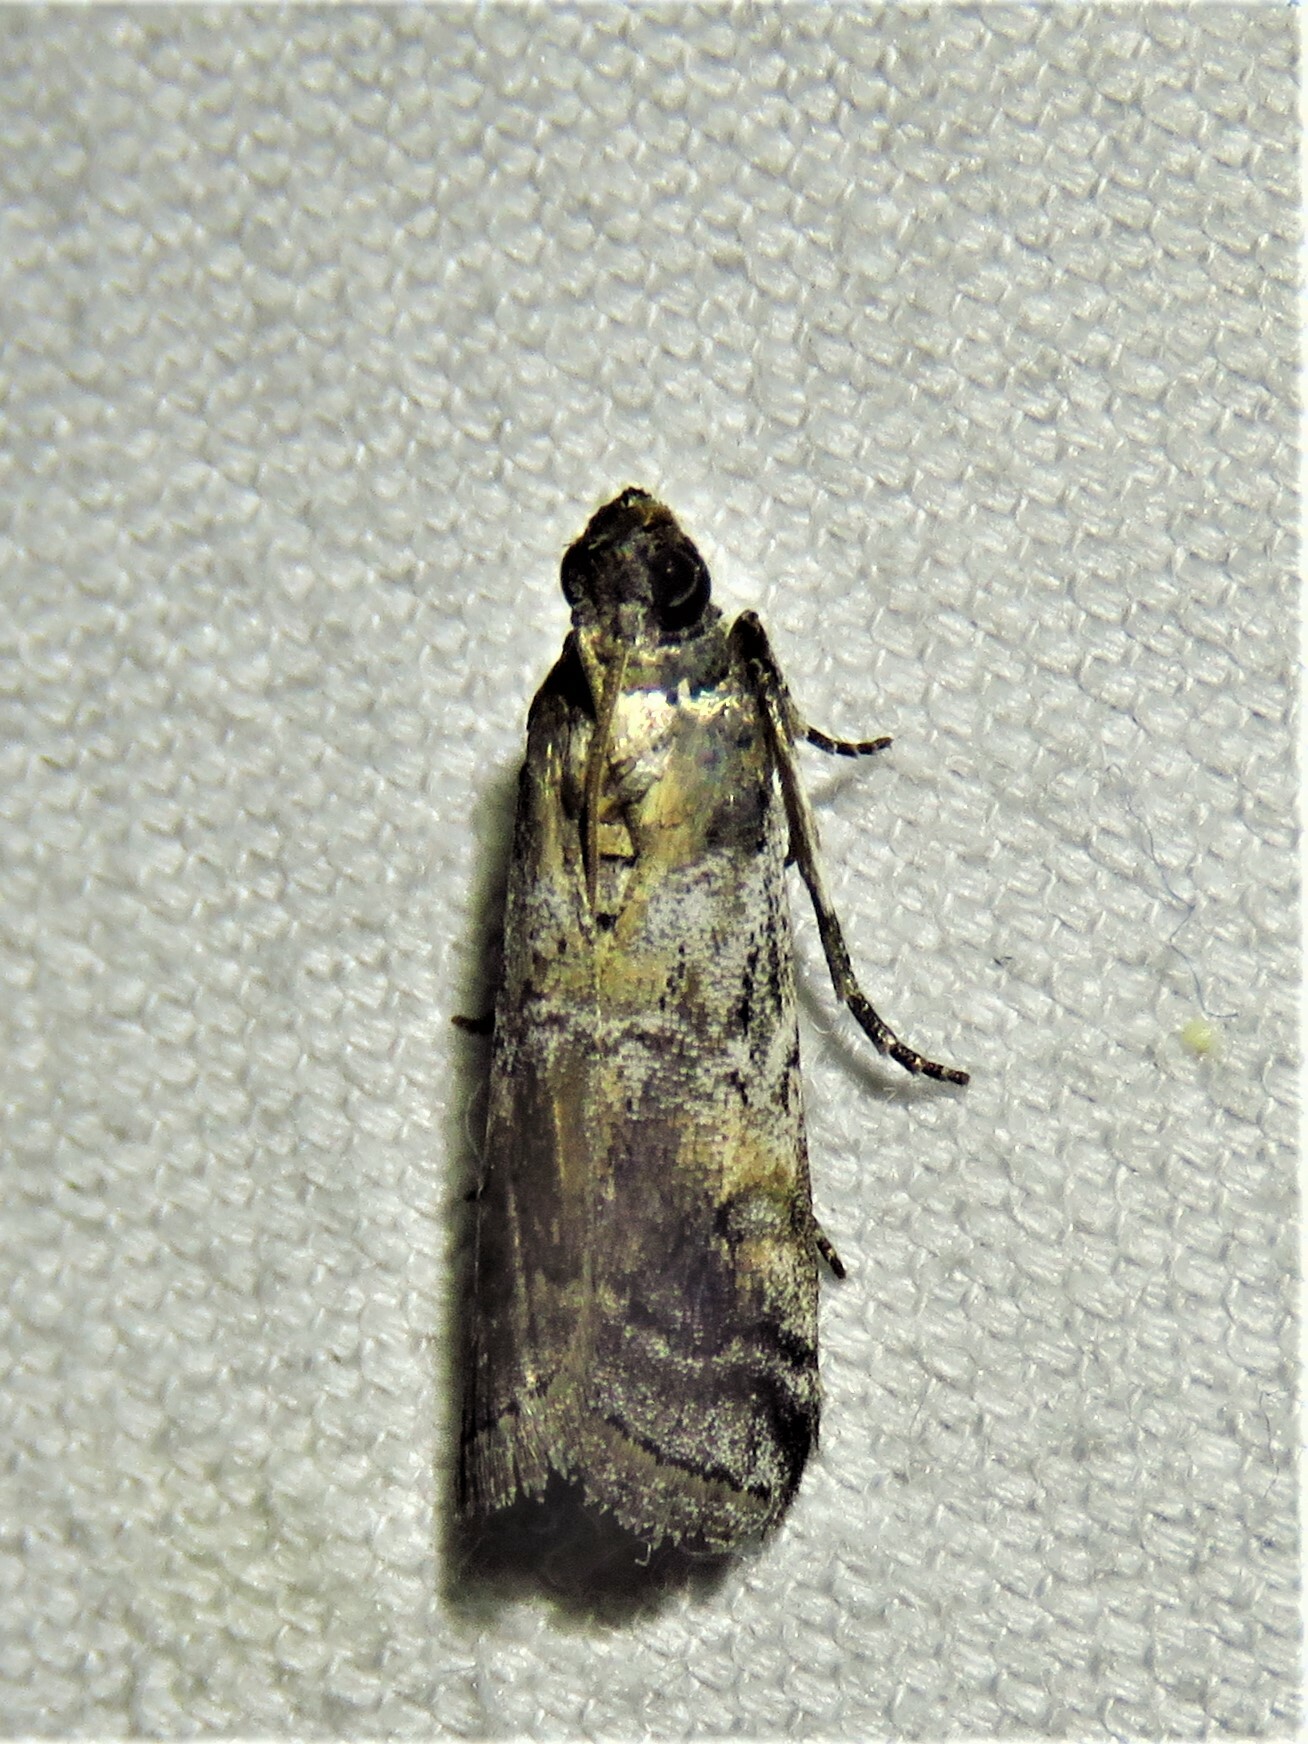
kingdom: Animalia
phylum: Arthropoda
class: Insecta
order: Lepidoptera
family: Pyralidae
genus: Chararica
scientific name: Chararica hystriculella
